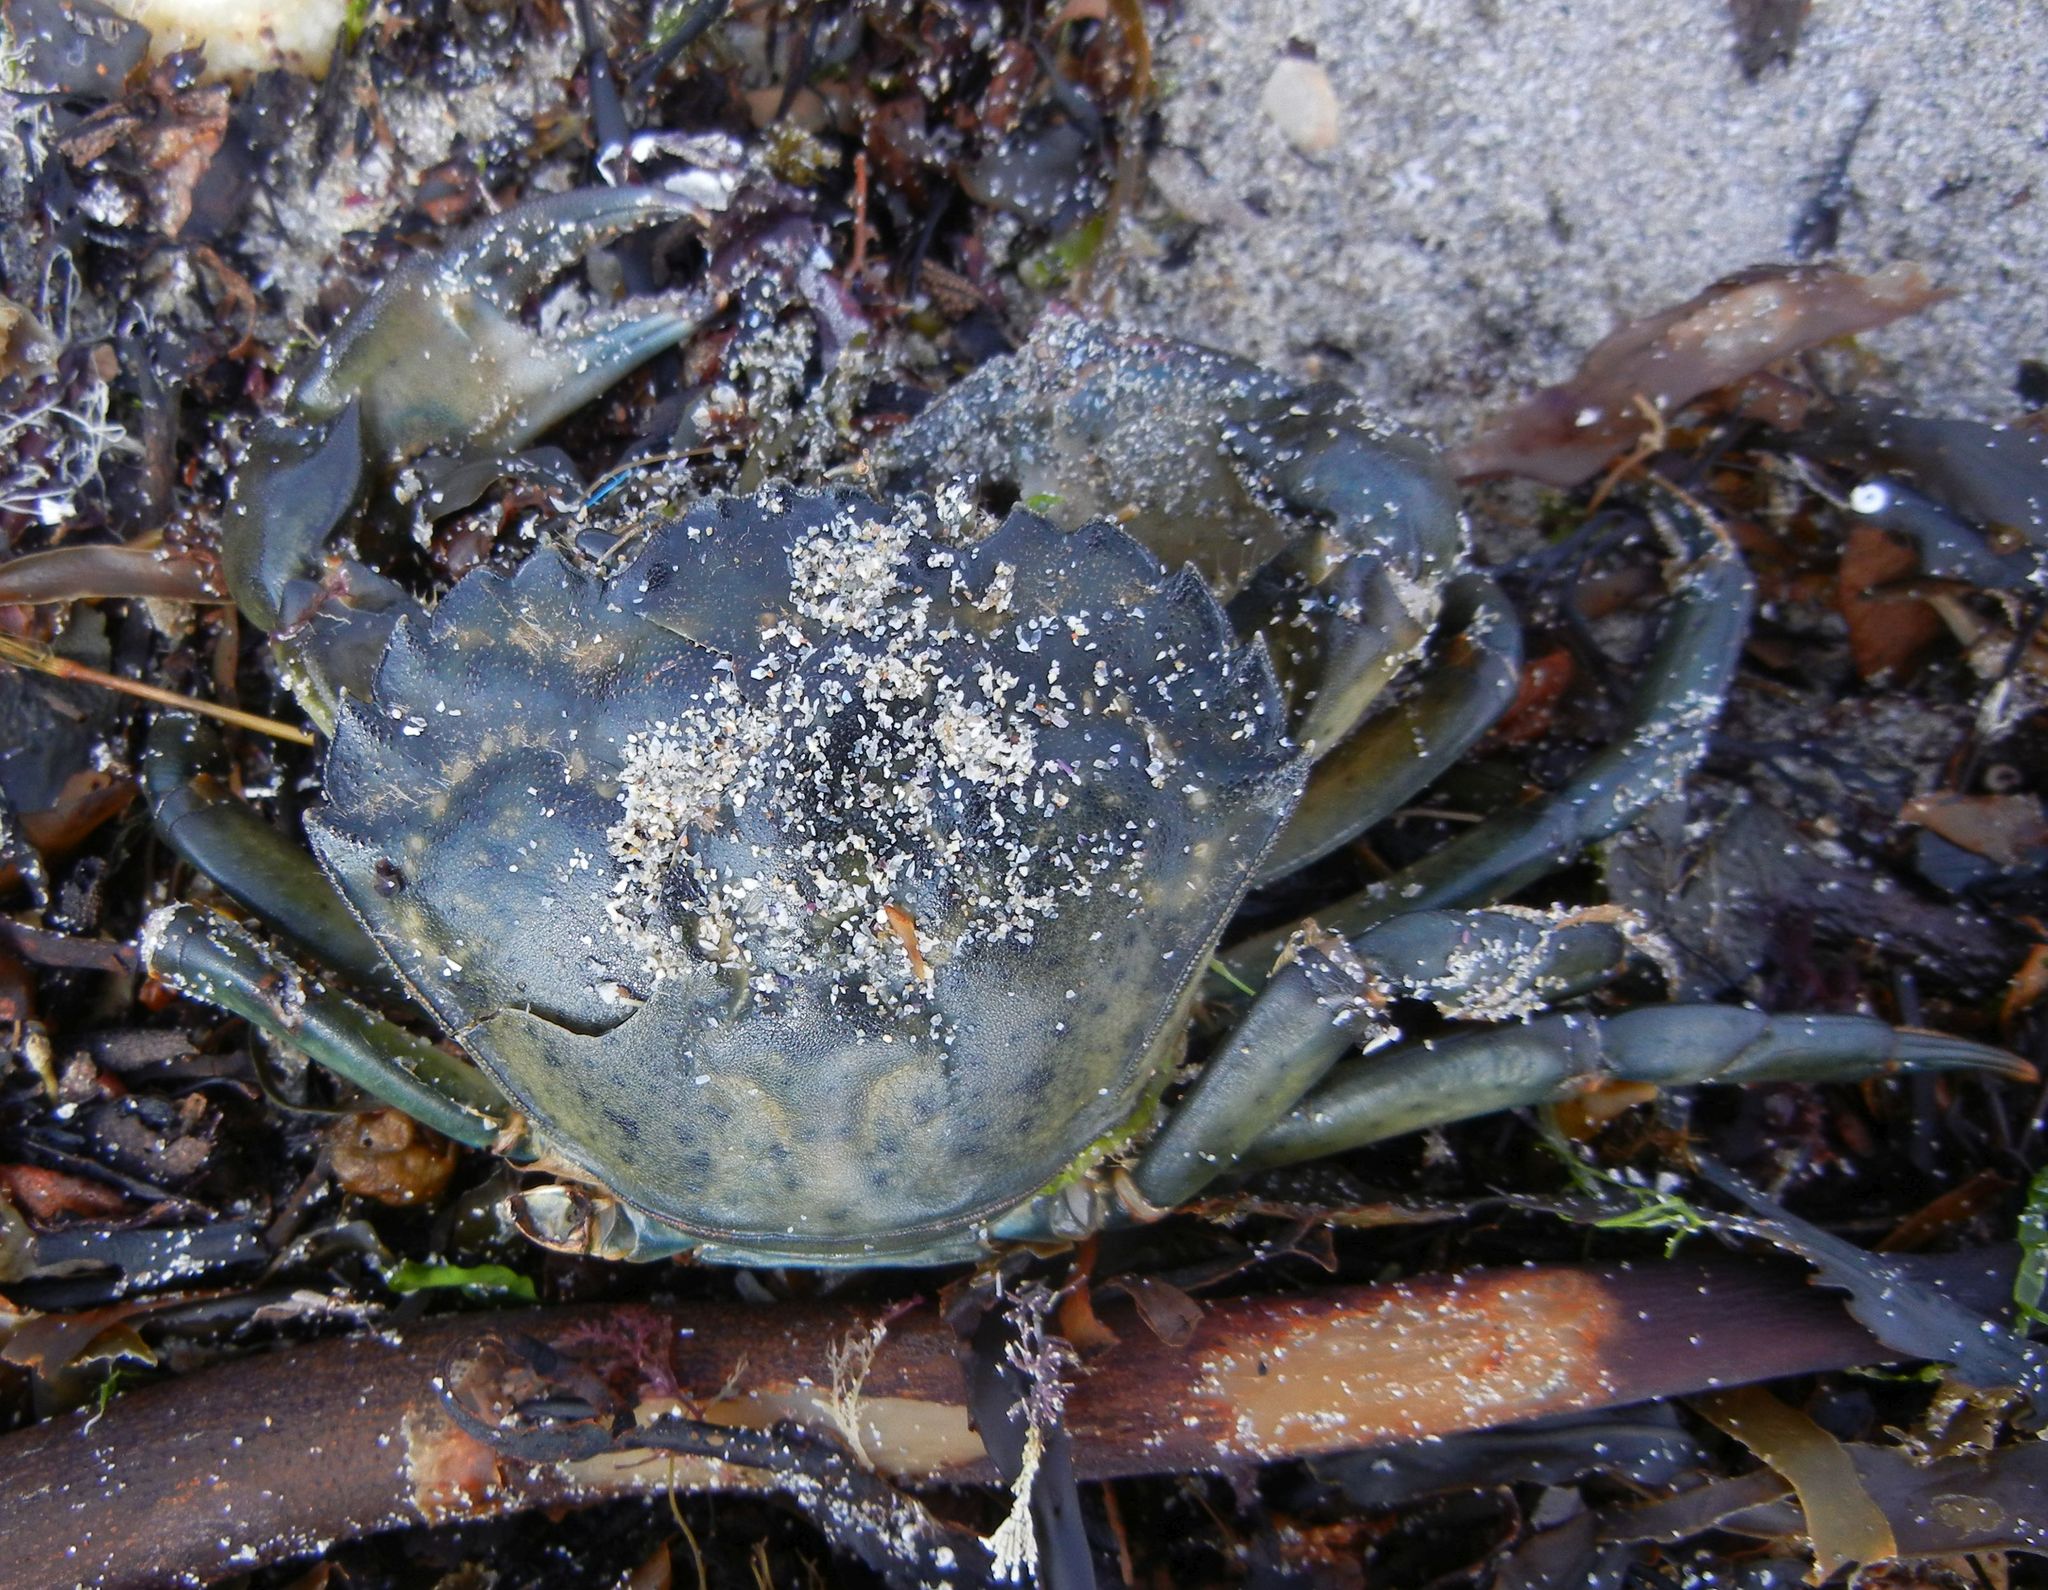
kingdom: Animalia
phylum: Arthropoda
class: Malacostraca
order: Decapoda
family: Carcinidae
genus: Carcinus
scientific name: Carcinus maenas
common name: European green crab
